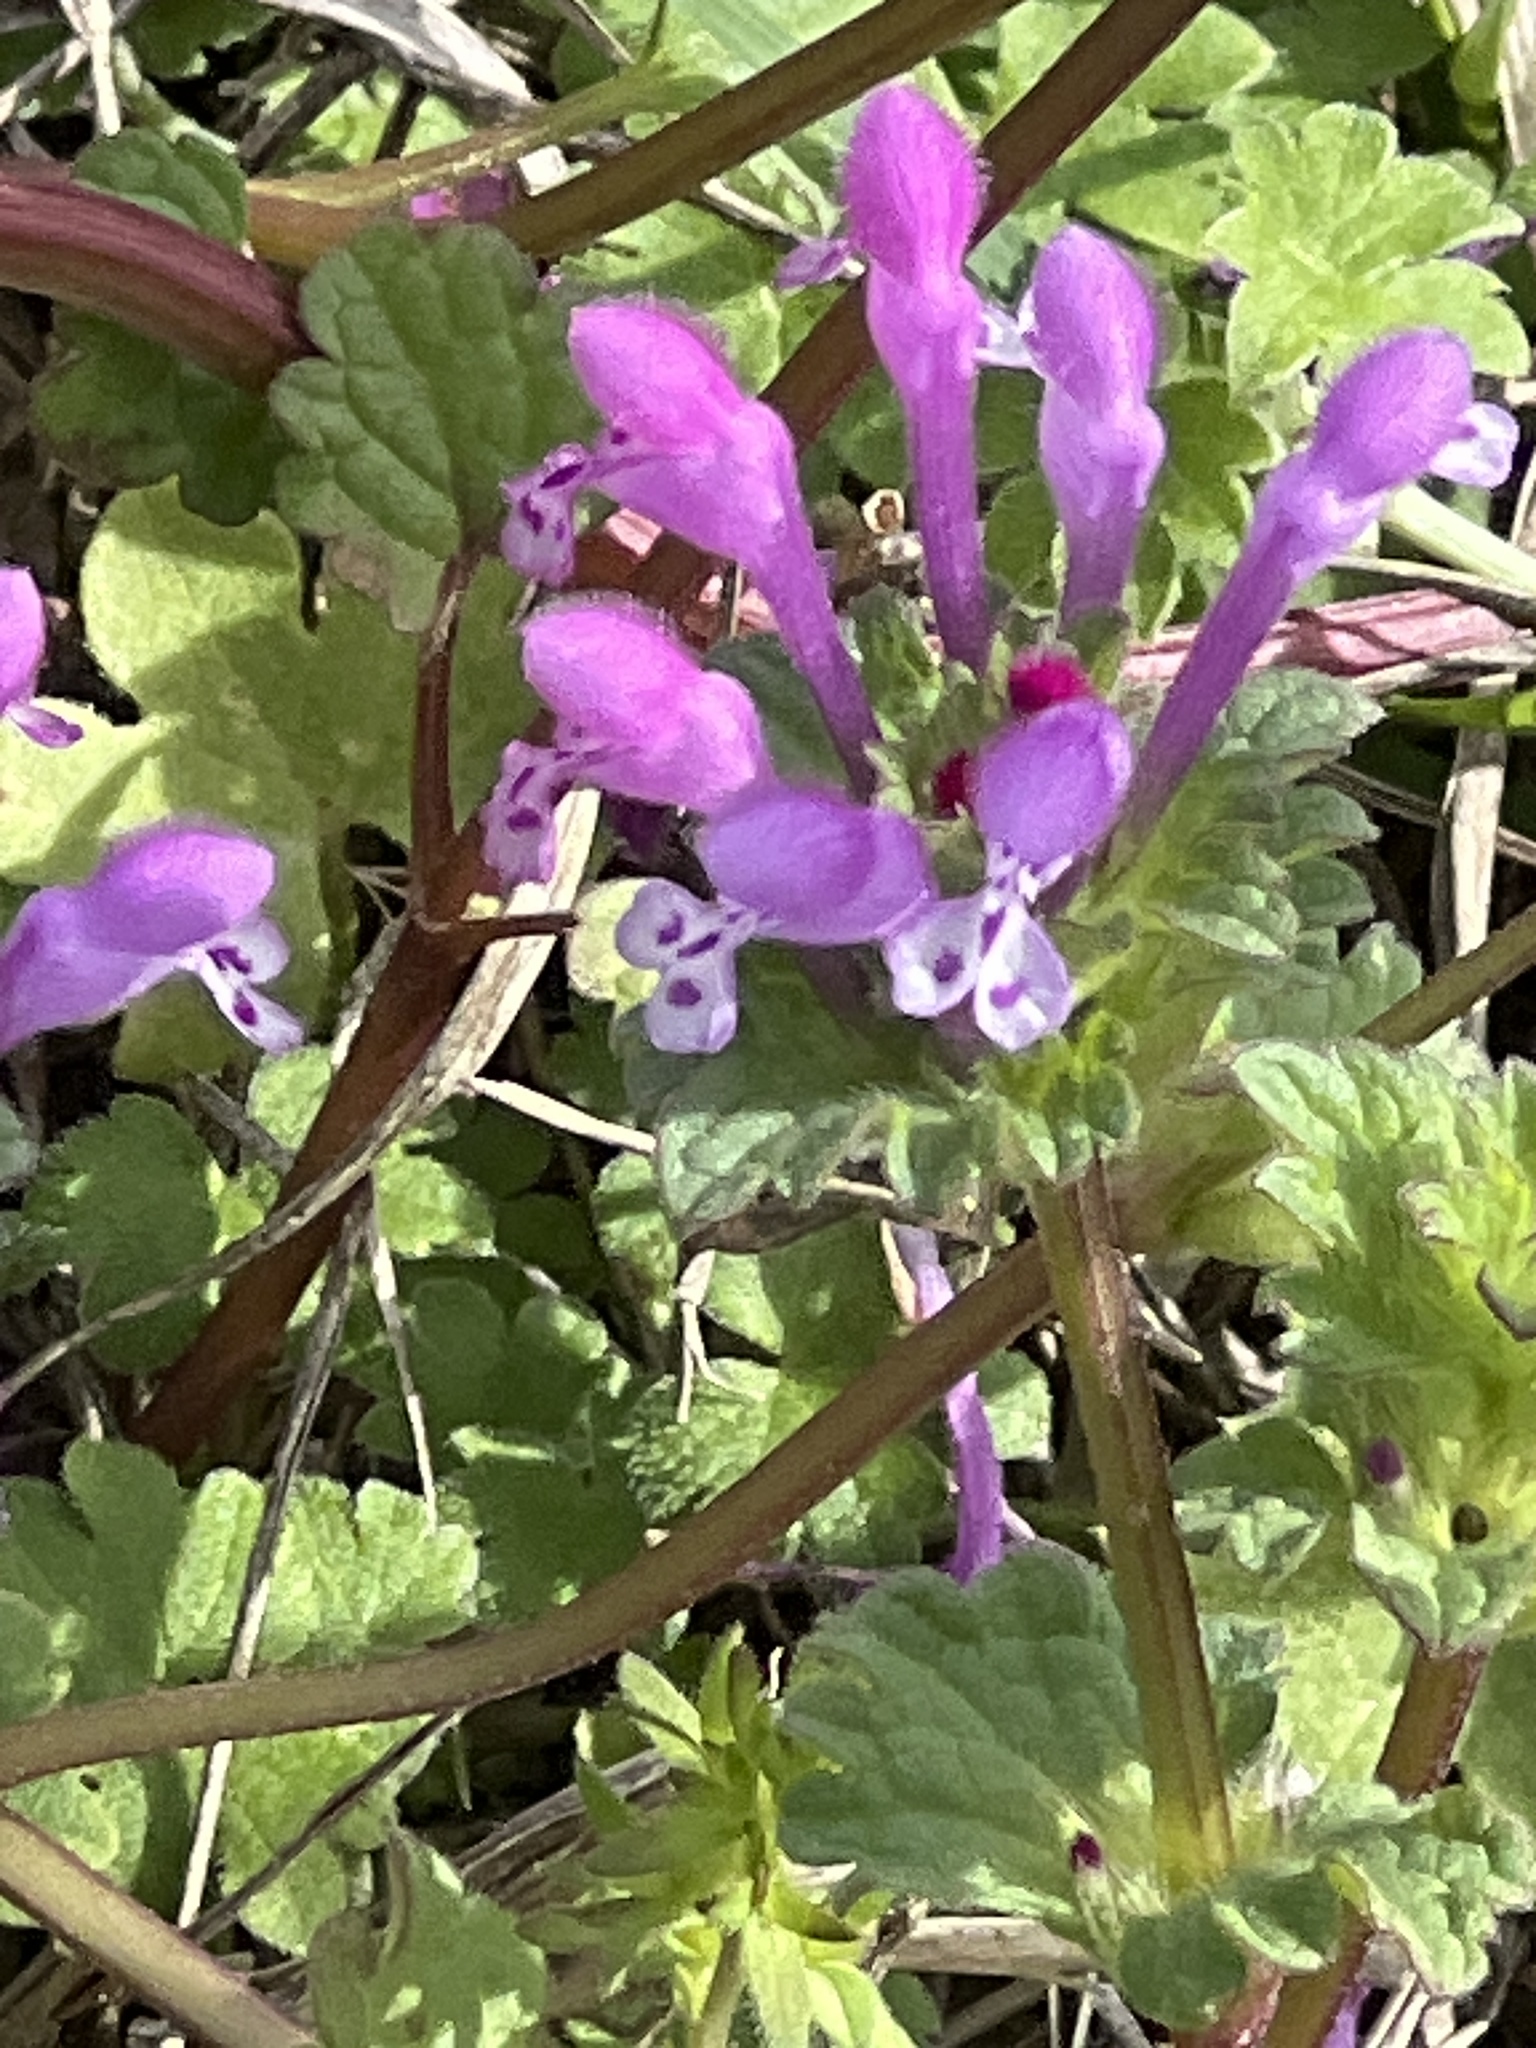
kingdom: Plantae
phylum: Tracheophyta
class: Magnoliopsida
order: Lamiales
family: Lamiaceae
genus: Lamium
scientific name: Lamium amplexicaule
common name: Henbit dead-nettle
